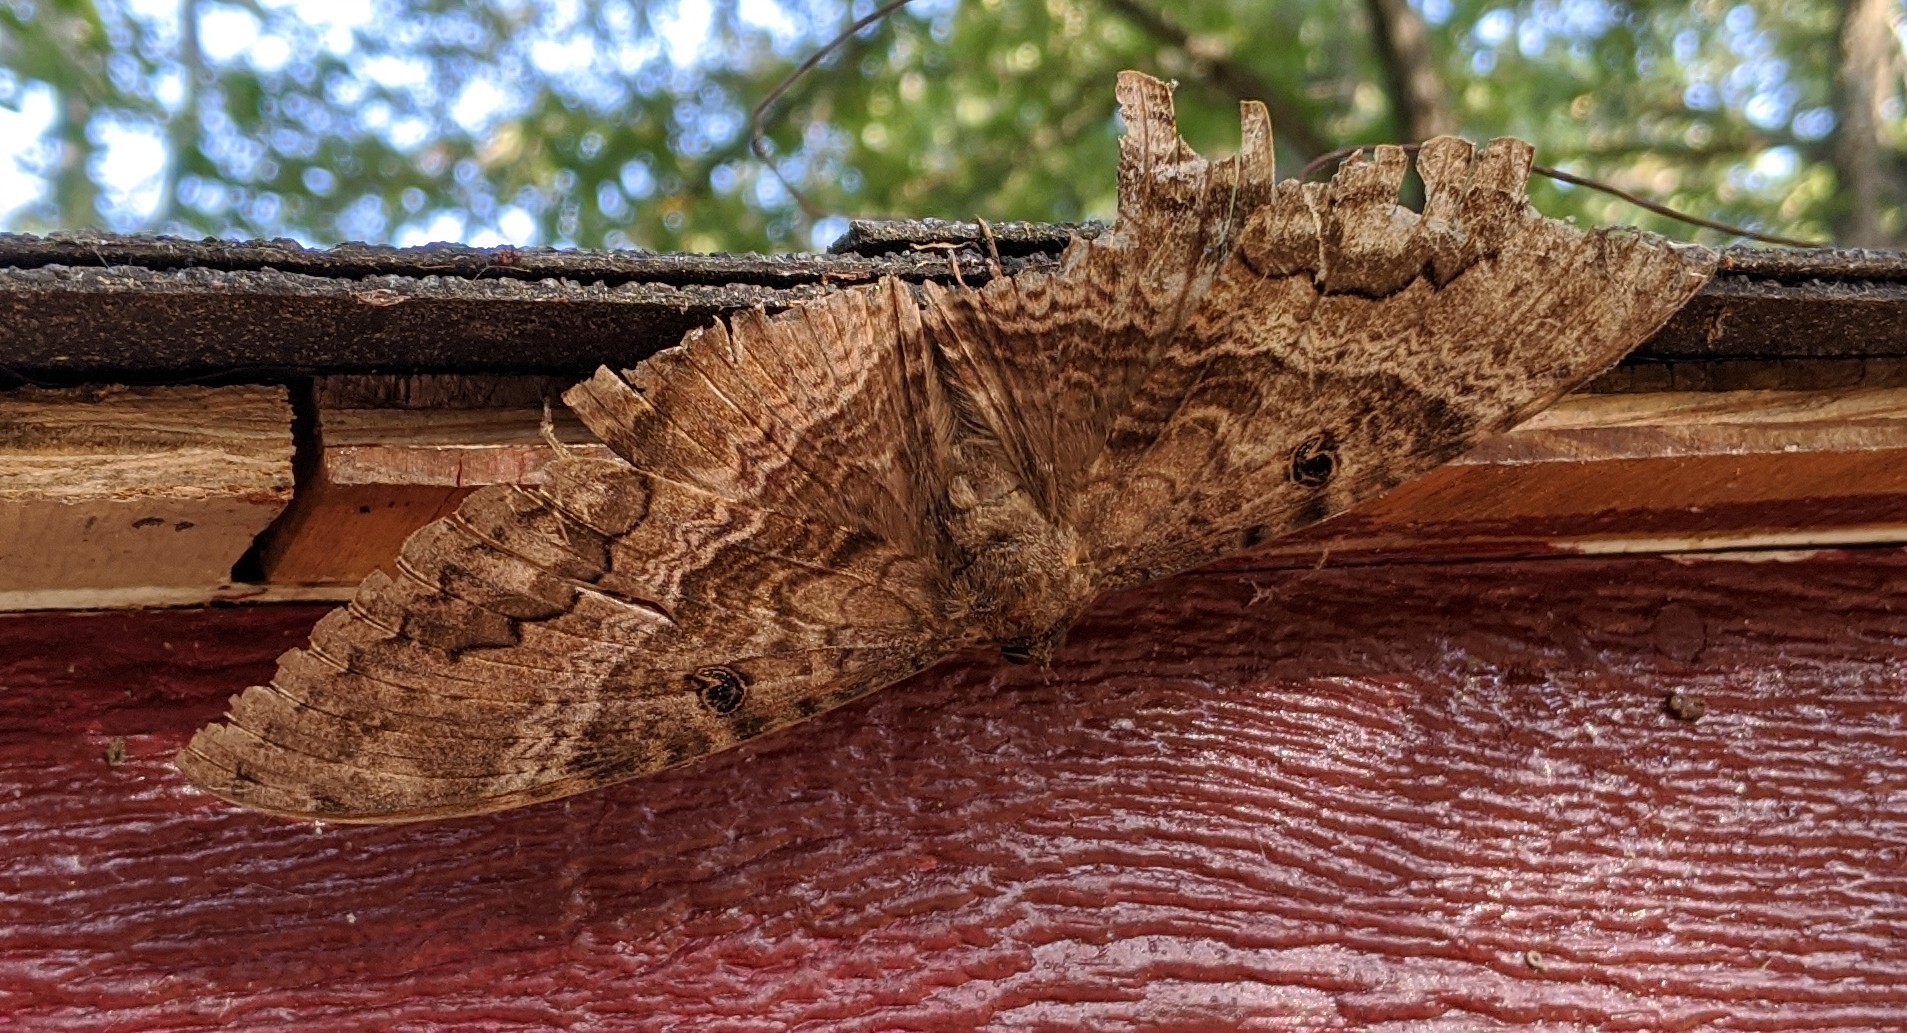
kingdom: Animalia
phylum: Arthropoda
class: Insecta
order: Lepidoptera
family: Erebidae
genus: Ascalapha
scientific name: Ascalapha odorata
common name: Black witch
